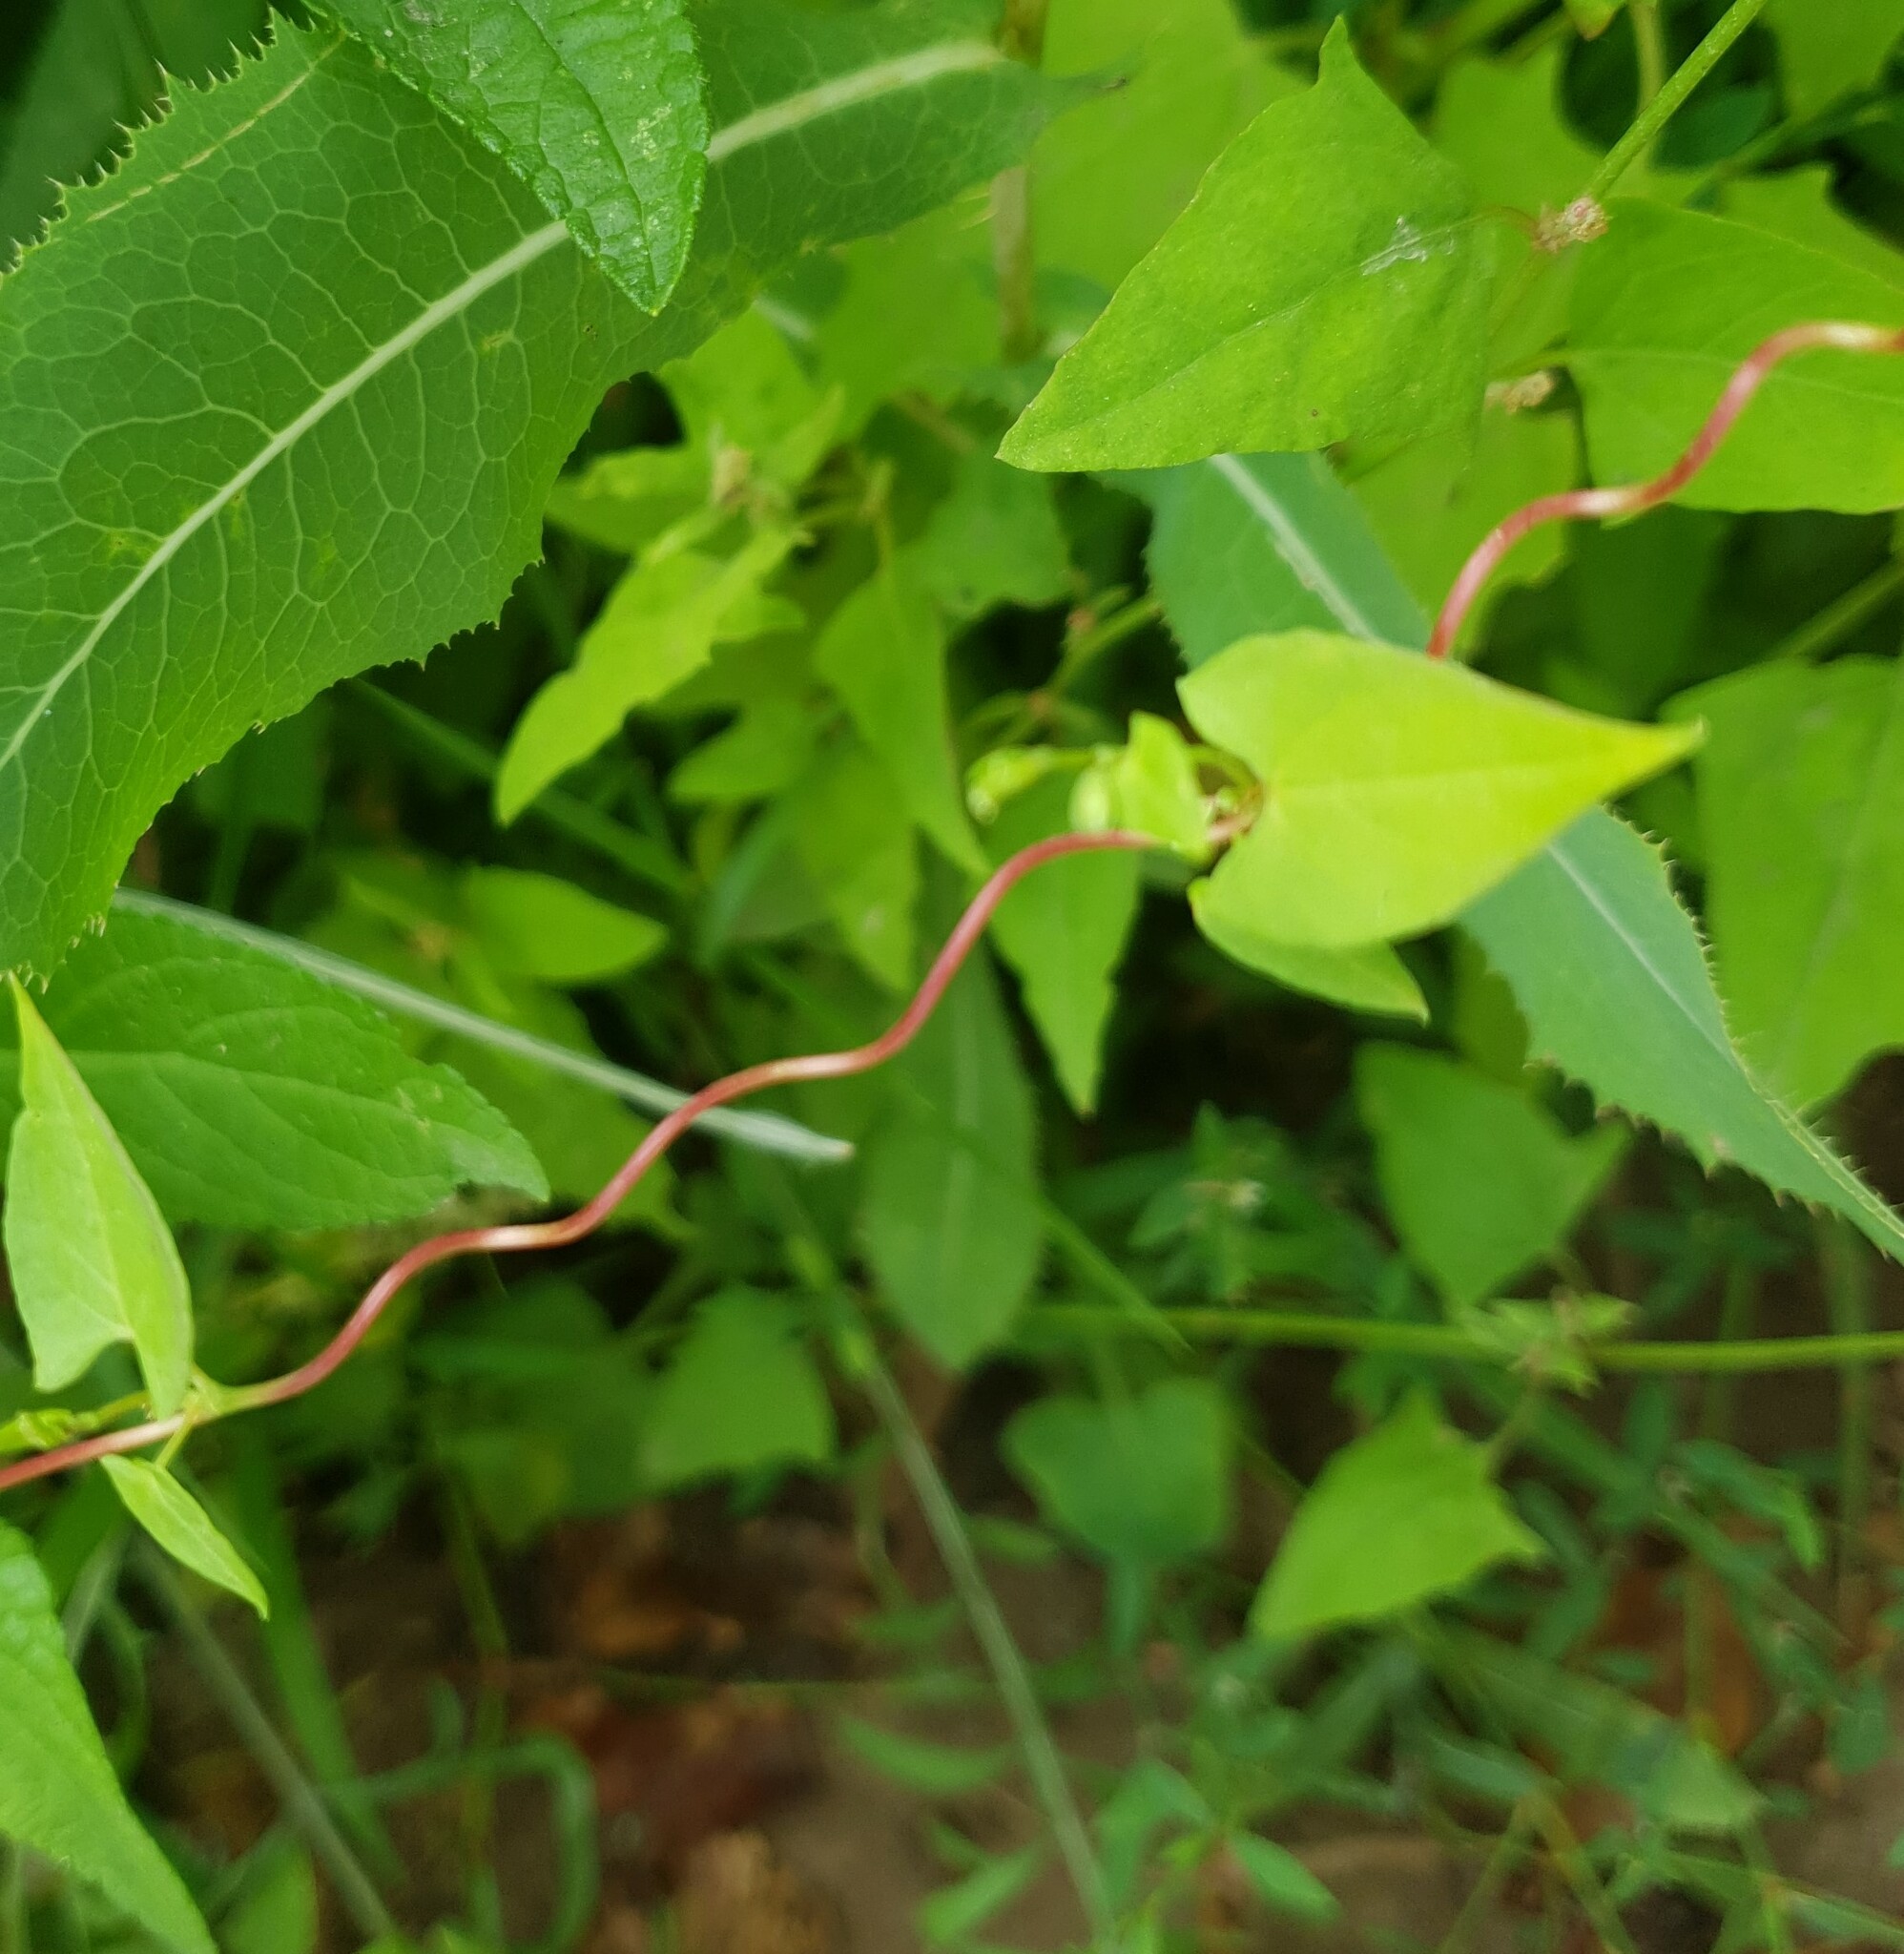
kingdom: Plantae
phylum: Tracheophyta
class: Magnoliopsida
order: Caryophyllales
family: Polygonaceae
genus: Fallopia
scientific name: Fallopia dumetorum
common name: Copse-bindweed
